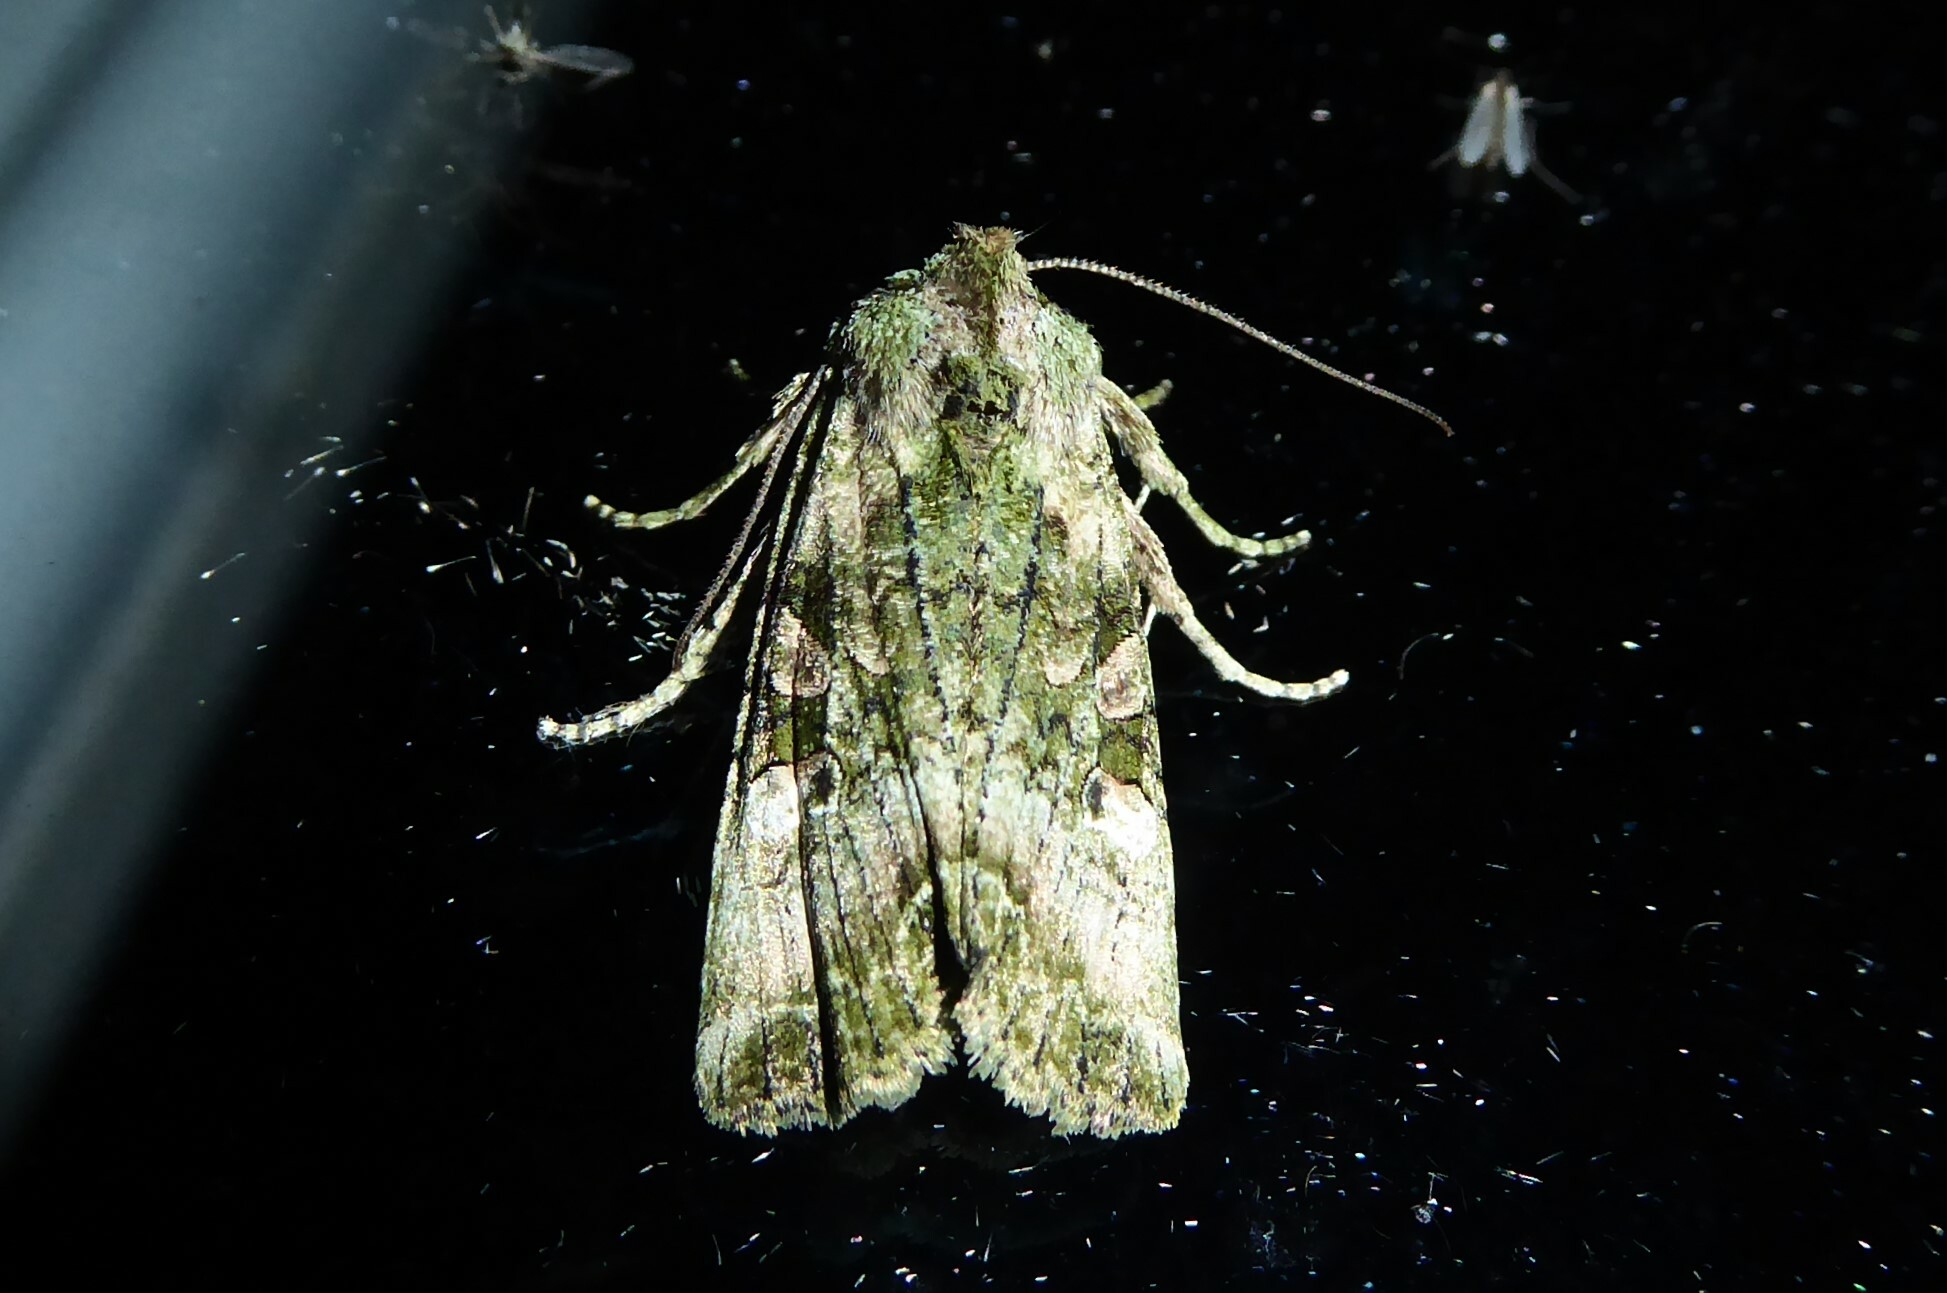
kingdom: Animalia
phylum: Arthropoda
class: Insecta
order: Lepidoptera
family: Noctuidae
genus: Meterana
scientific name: Meterana levis
